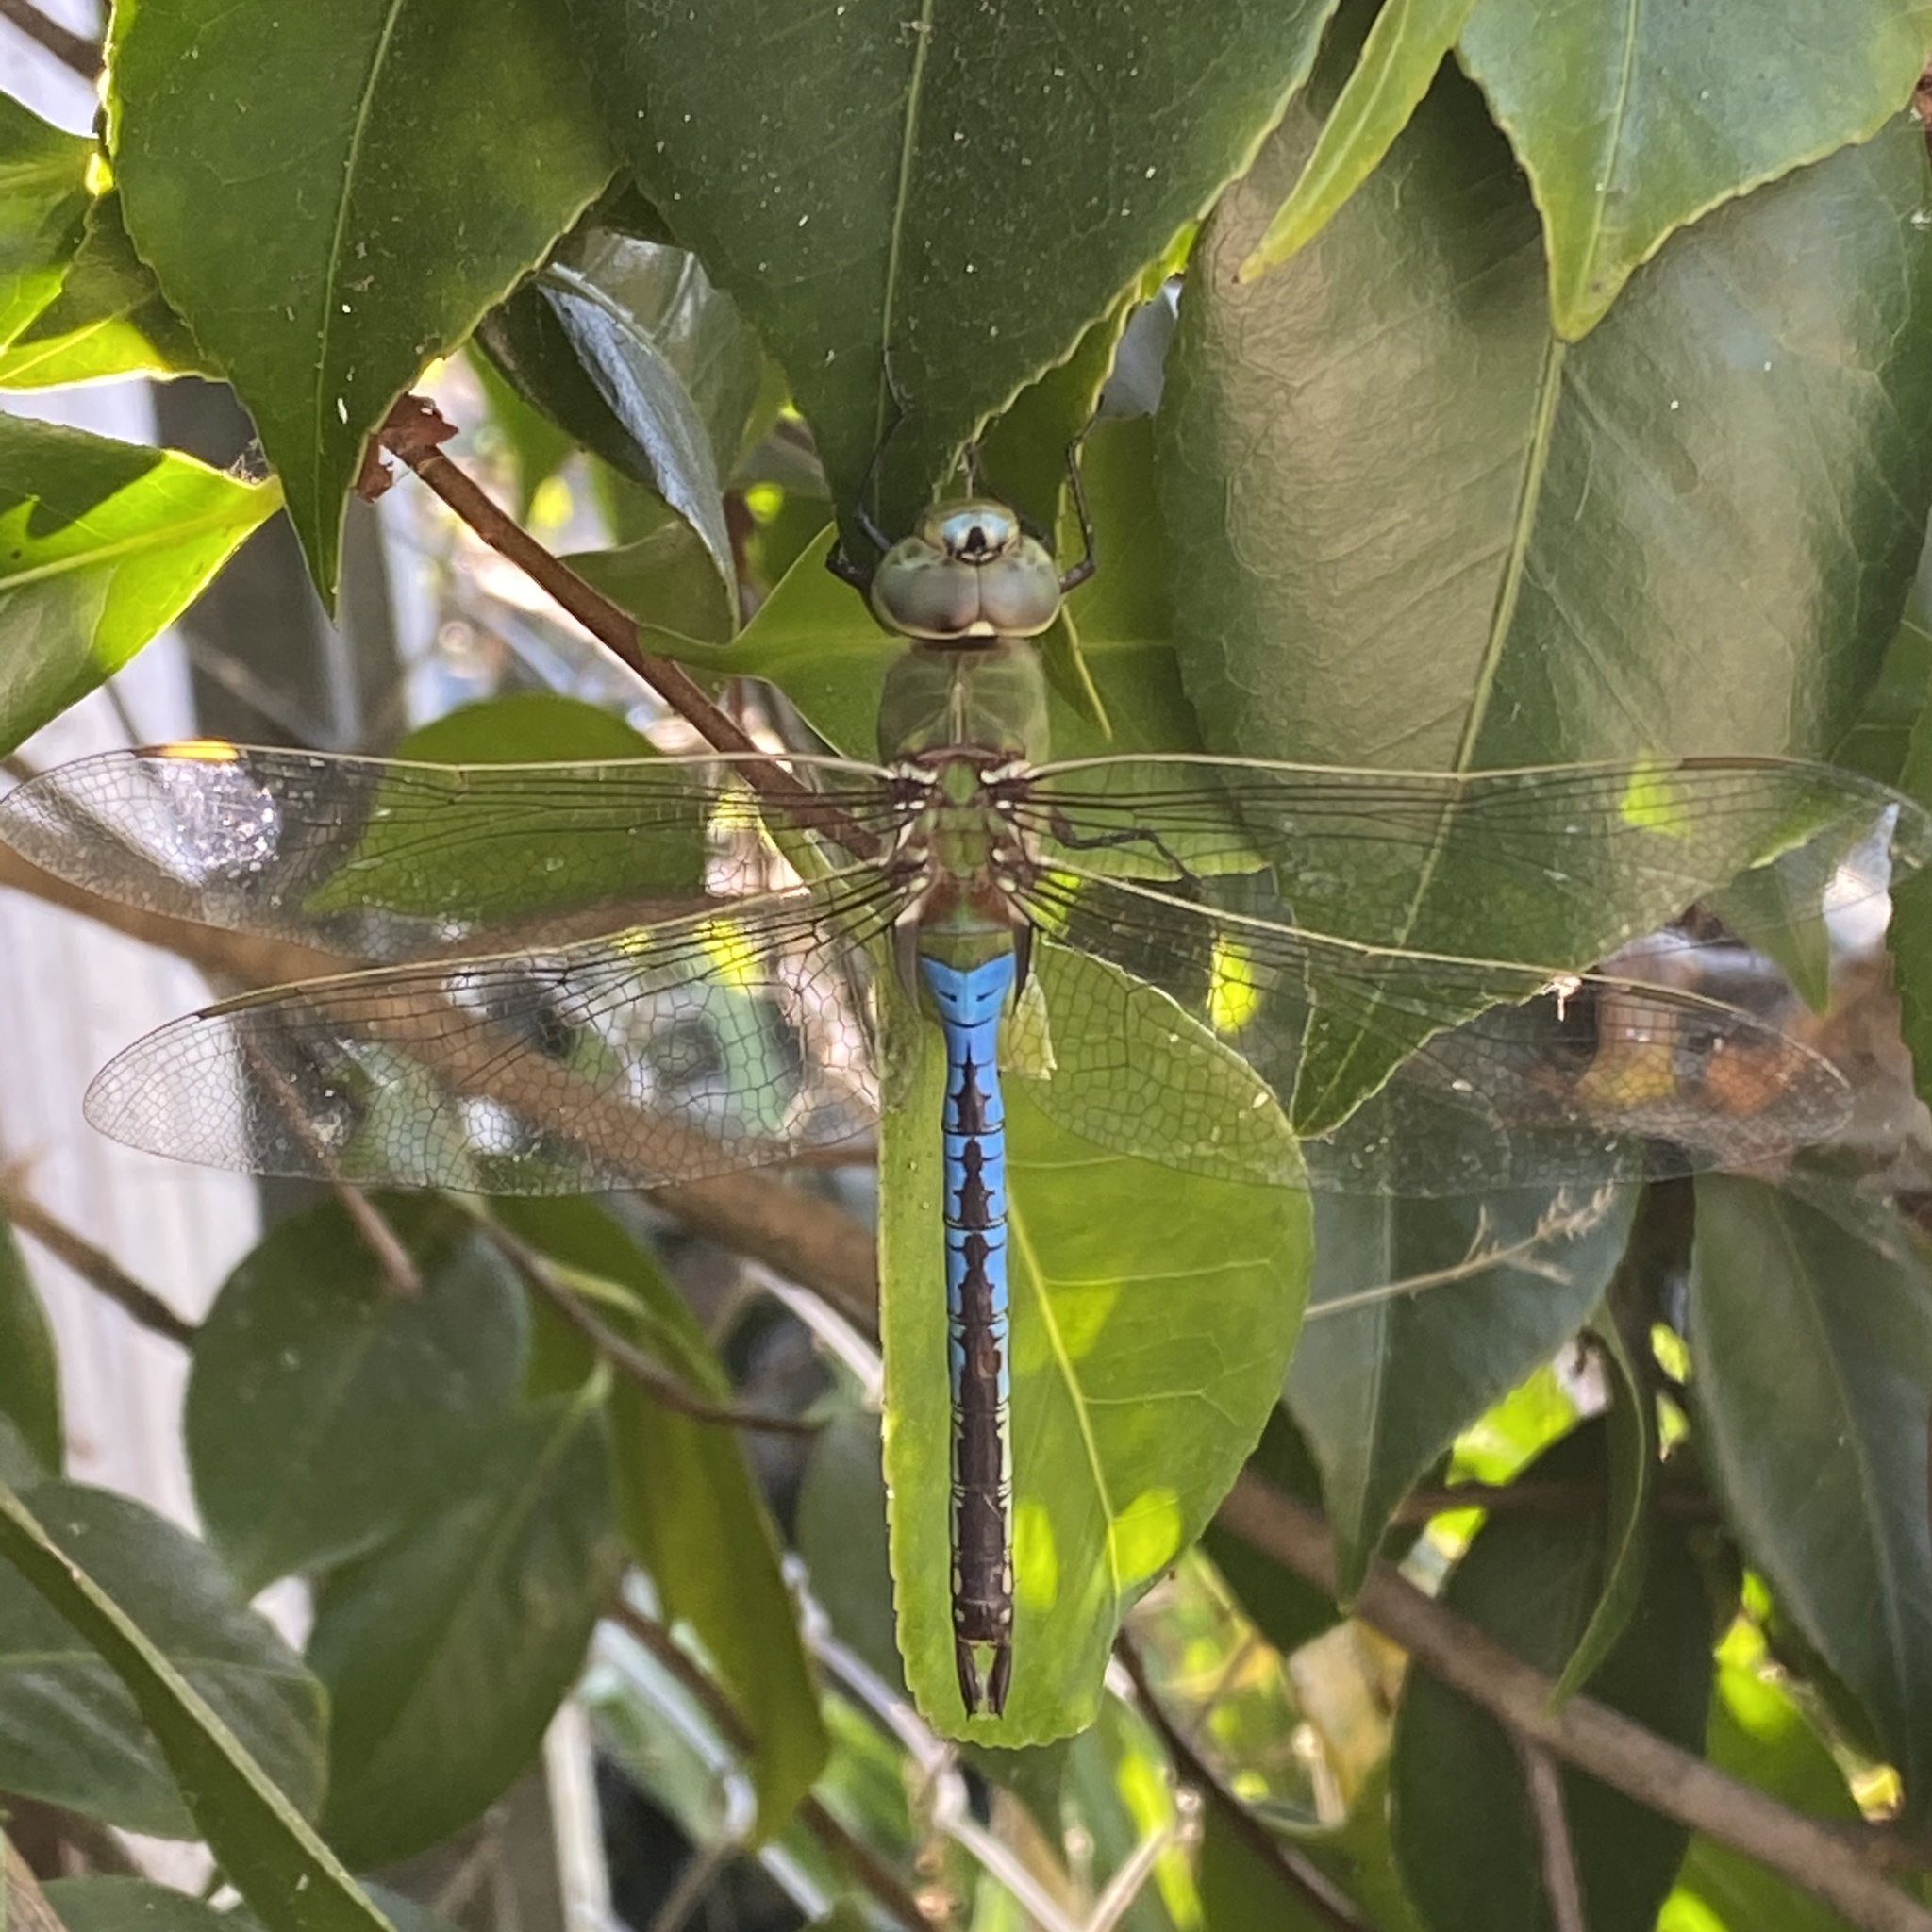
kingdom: Animalia
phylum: Arthropoda
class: Insecta
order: Odonata
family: Aeshnidae
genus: Anax
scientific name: Anax junius
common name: Common green darner
